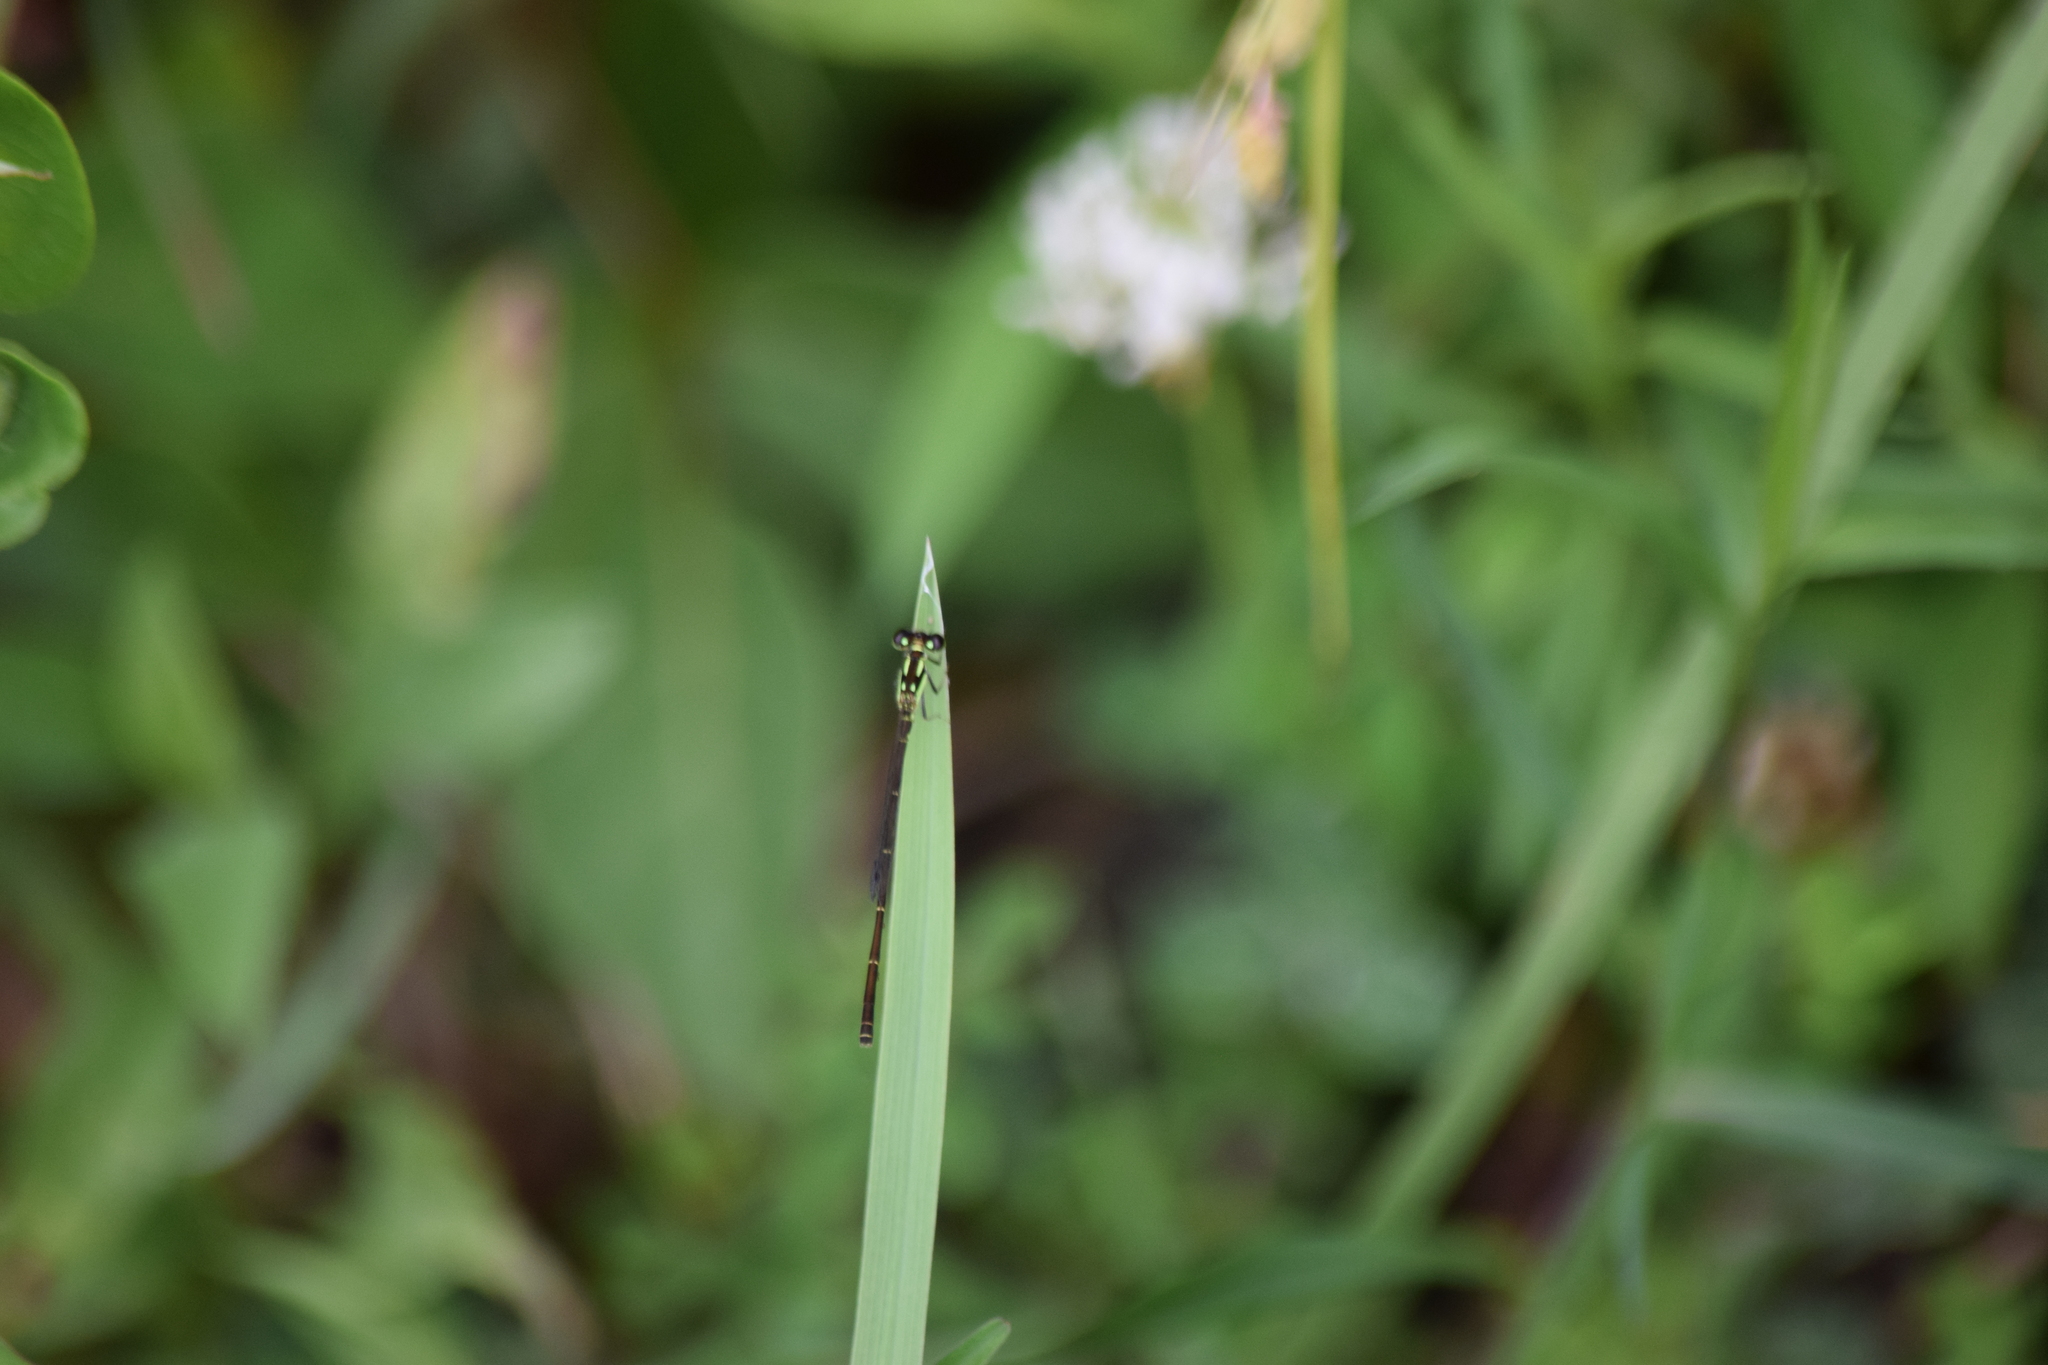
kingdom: Animalia
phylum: Arthropoda
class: Insecta
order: Odonata
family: Coenagrionidae
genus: Ischnura
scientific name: Ischnura posita
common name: Fragile forktail
